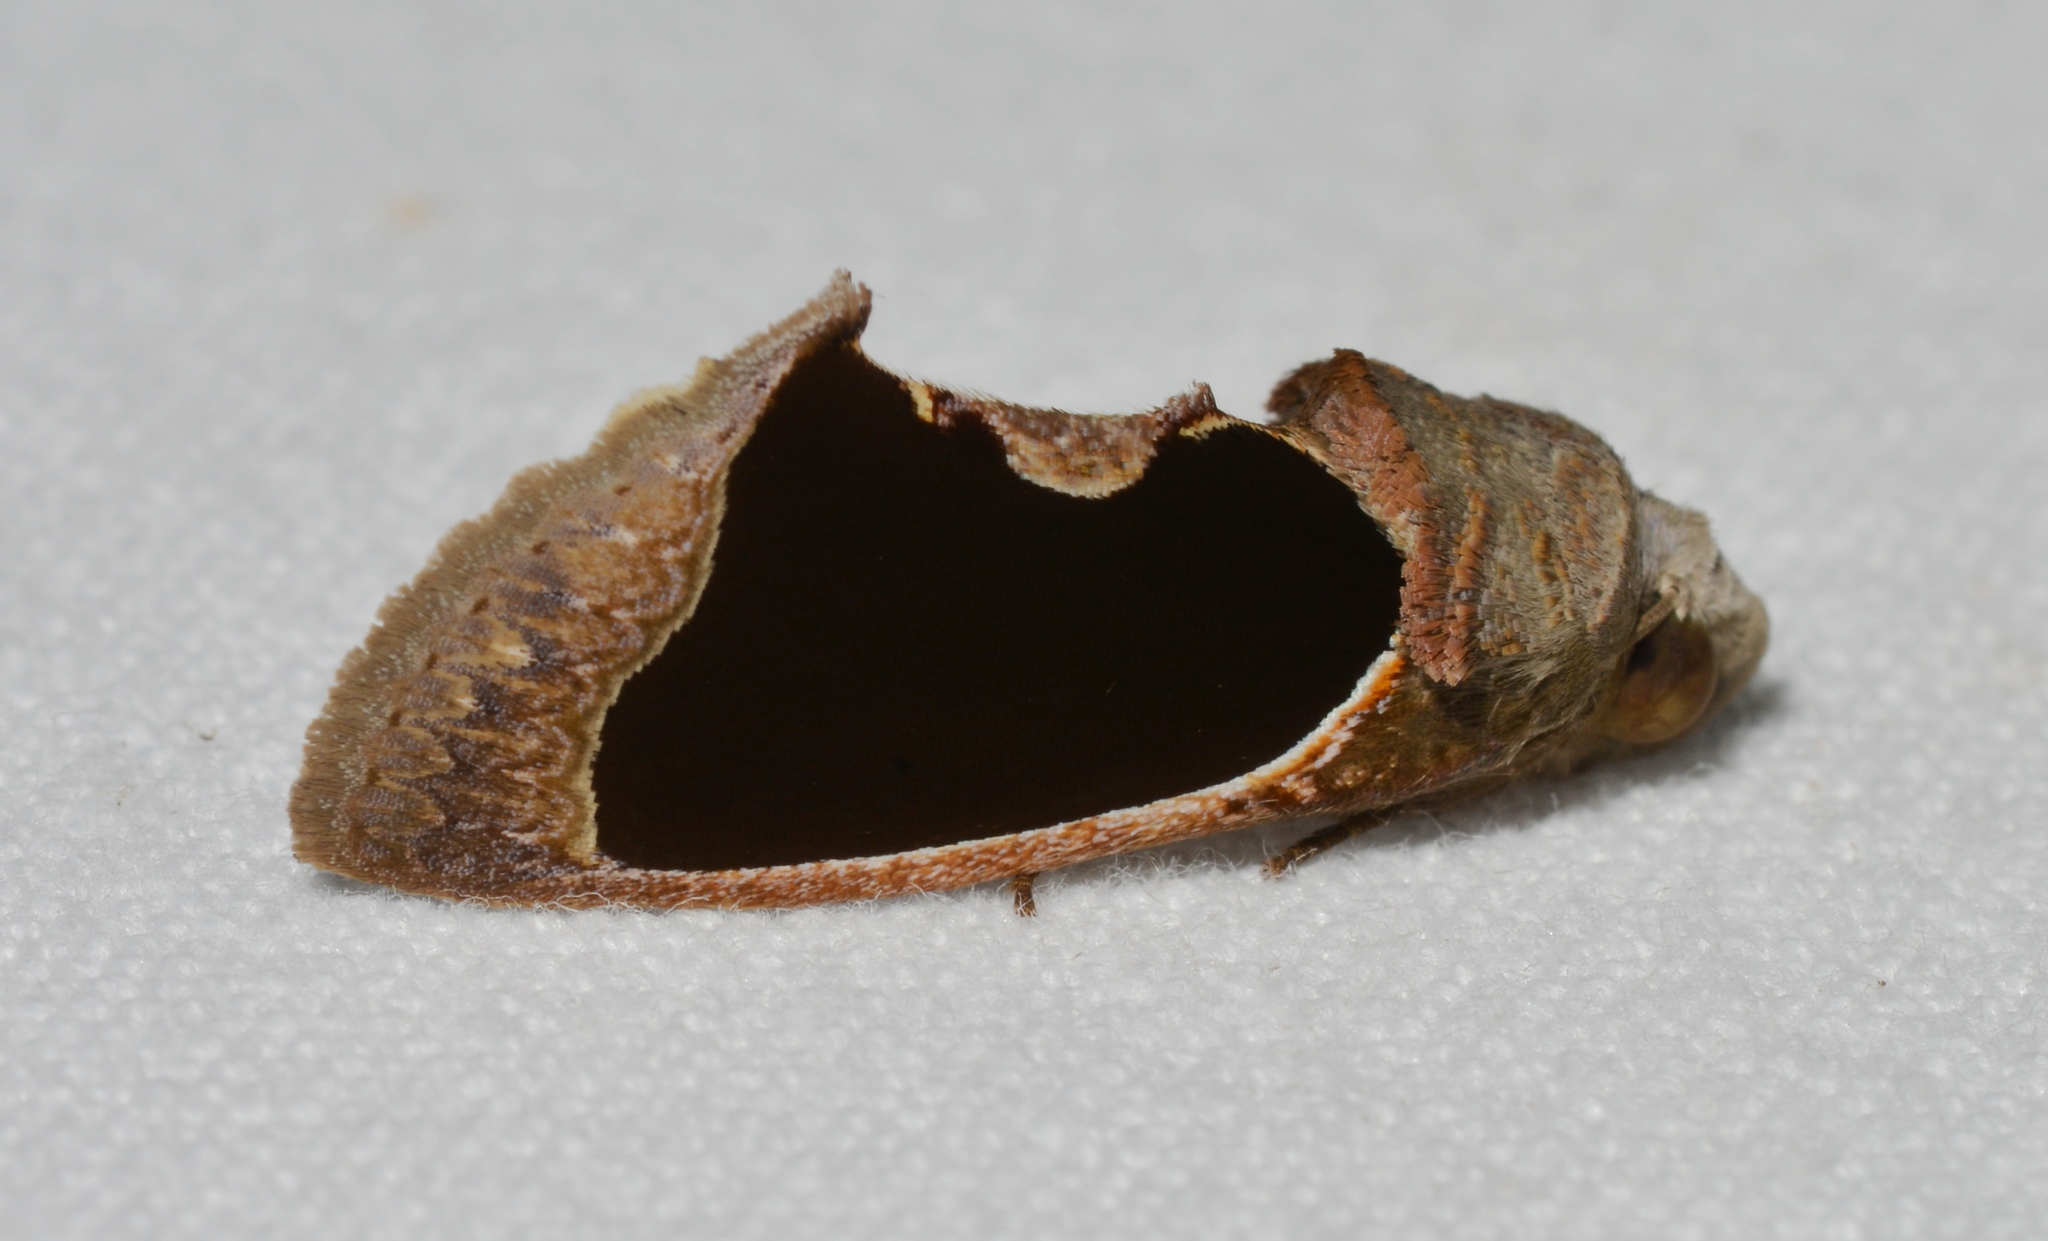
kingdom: Animalia
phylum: Arthropoda
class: Insecta
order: Lepidoptera
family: Erebidae
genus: Gonodonta
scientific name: Gonodonta sinaldus
